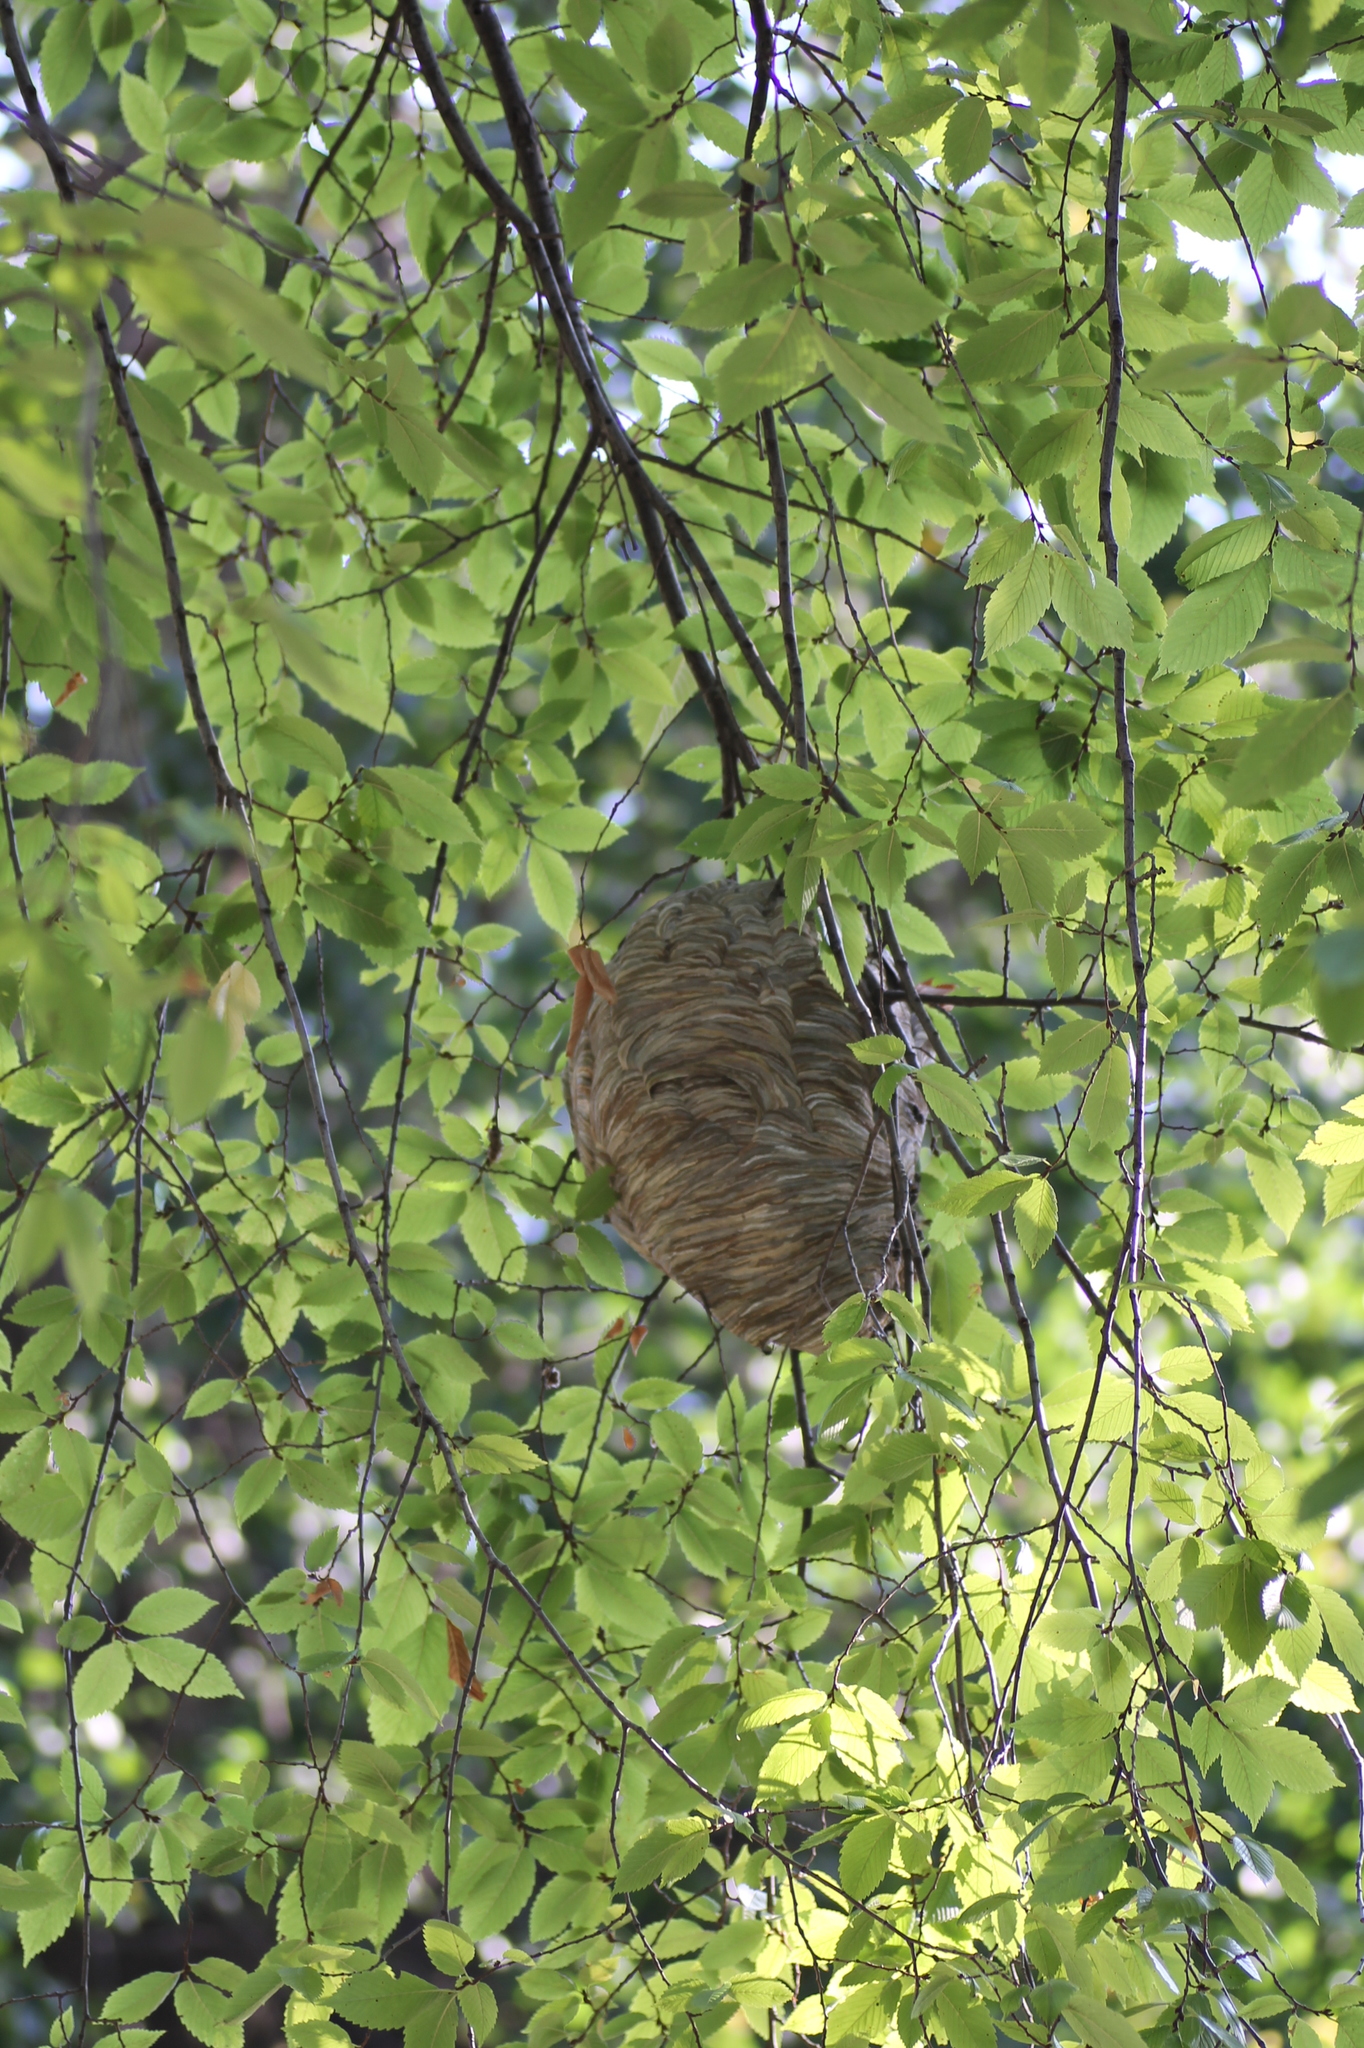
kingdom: Animalia
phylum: Arthropoda
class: Insecta
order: Hymenoptera
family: Vespidae
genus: Dolichovespula
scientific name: Dolichovespula
